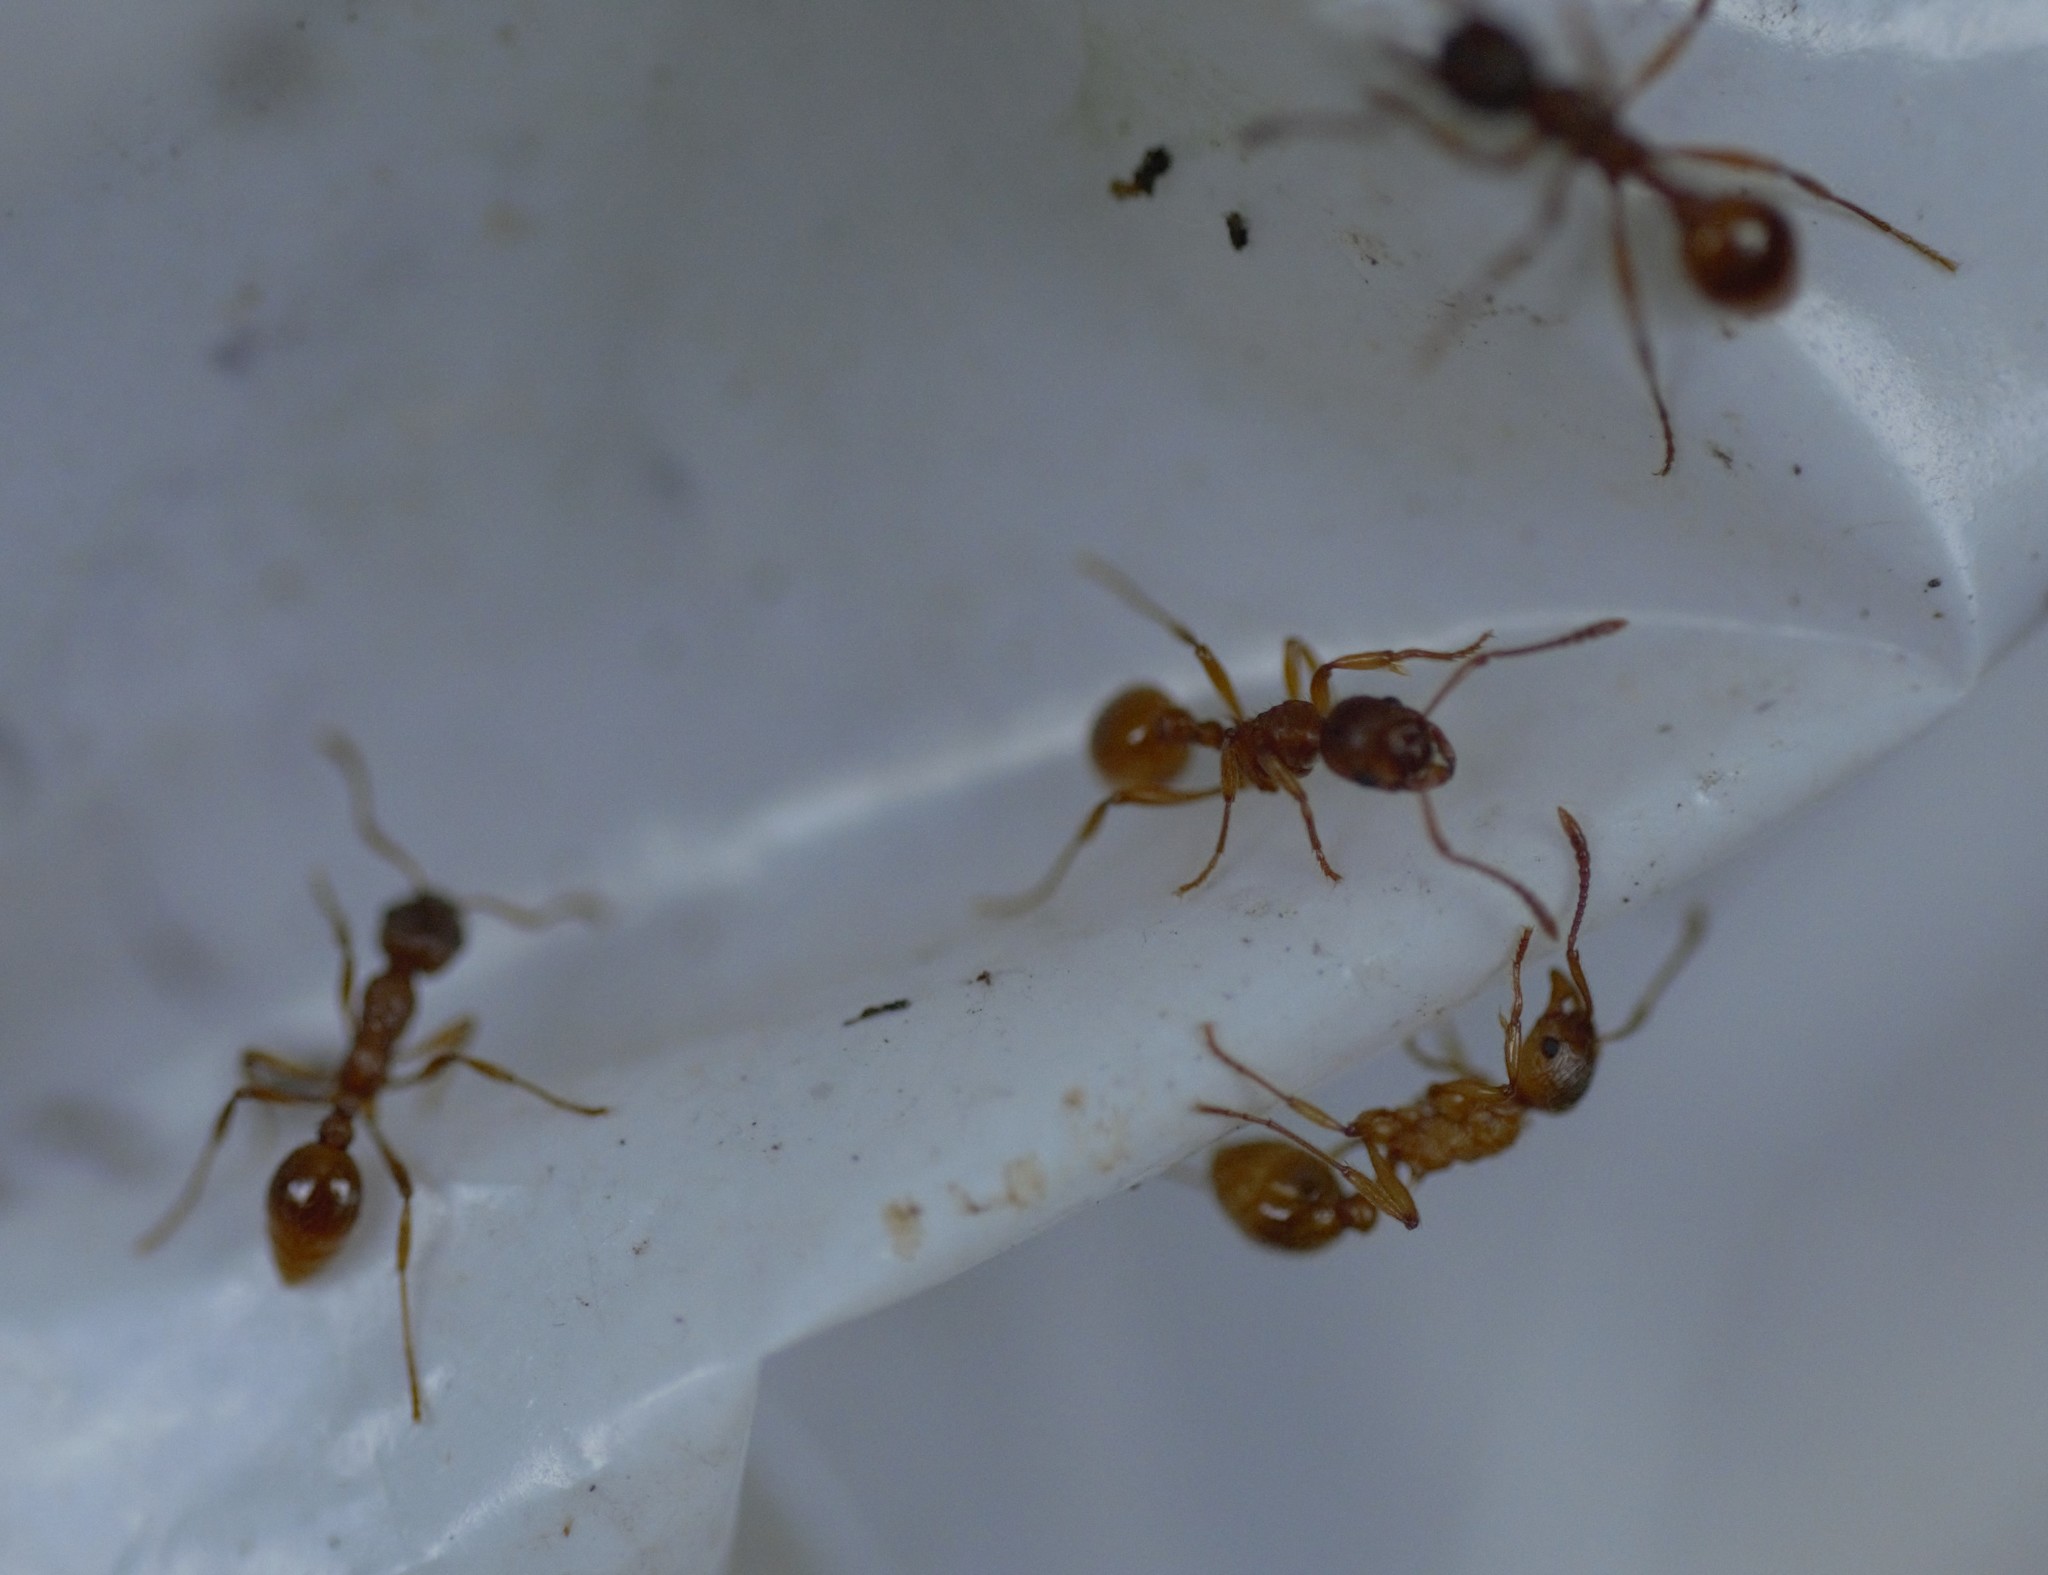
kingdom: Animalia
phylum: Arthropoda
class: Insecta
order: Hymenoptera
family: Formicidae
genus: Myrmica
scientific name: Myrmica rubra
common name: European fire ant
